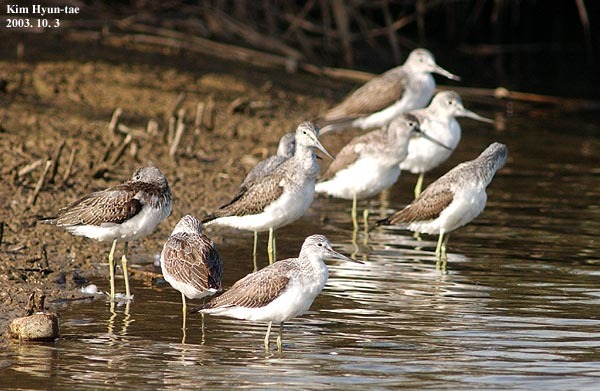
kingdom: Animalia
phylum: Chordata
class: Aves
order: Charadriiformes
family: Scolopacidae
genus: Tringa
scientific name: Tringa nebularia
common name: Common greenshank
